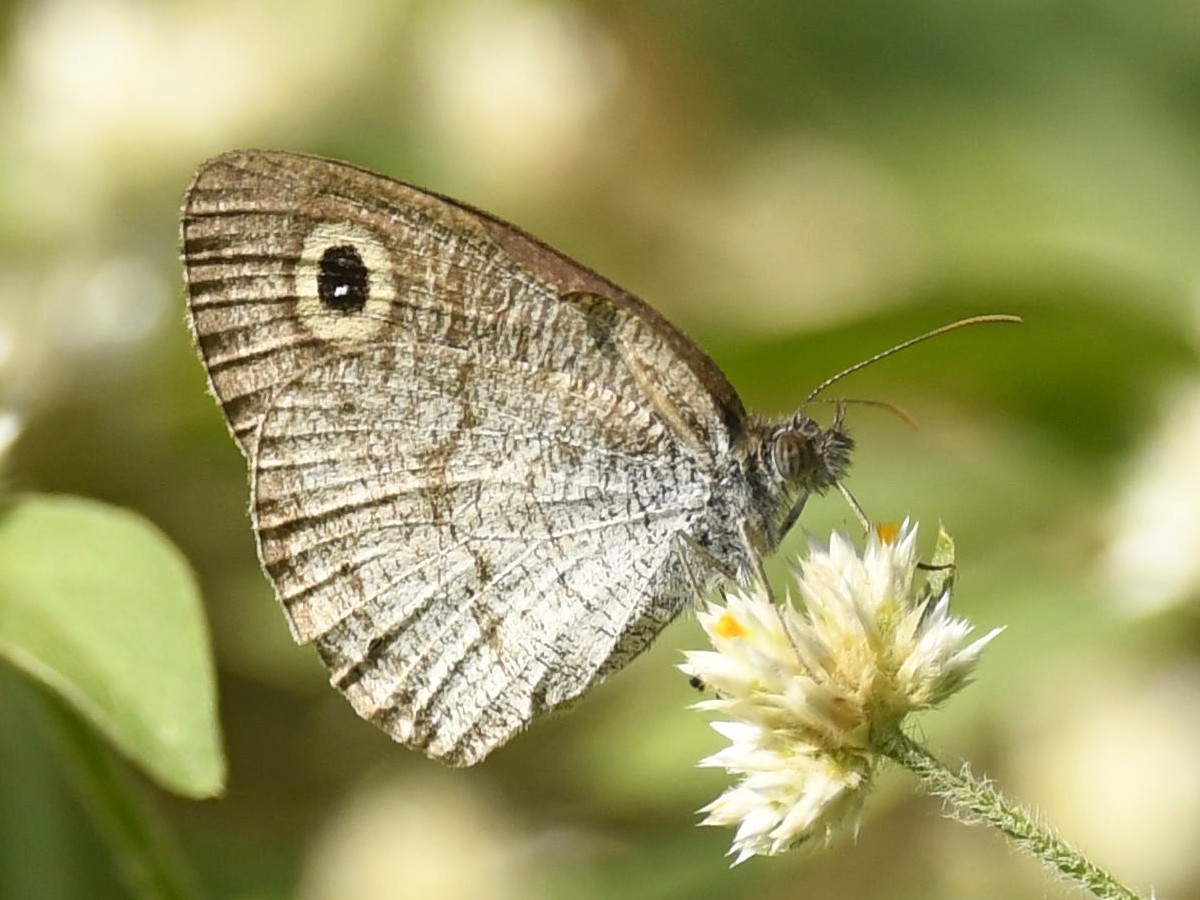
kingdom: Animalia
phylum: Arthropoda
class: Insecta
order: Lepidoptera
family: Nymphalidae
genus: Ypthima
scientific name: Ypthima huebneri
